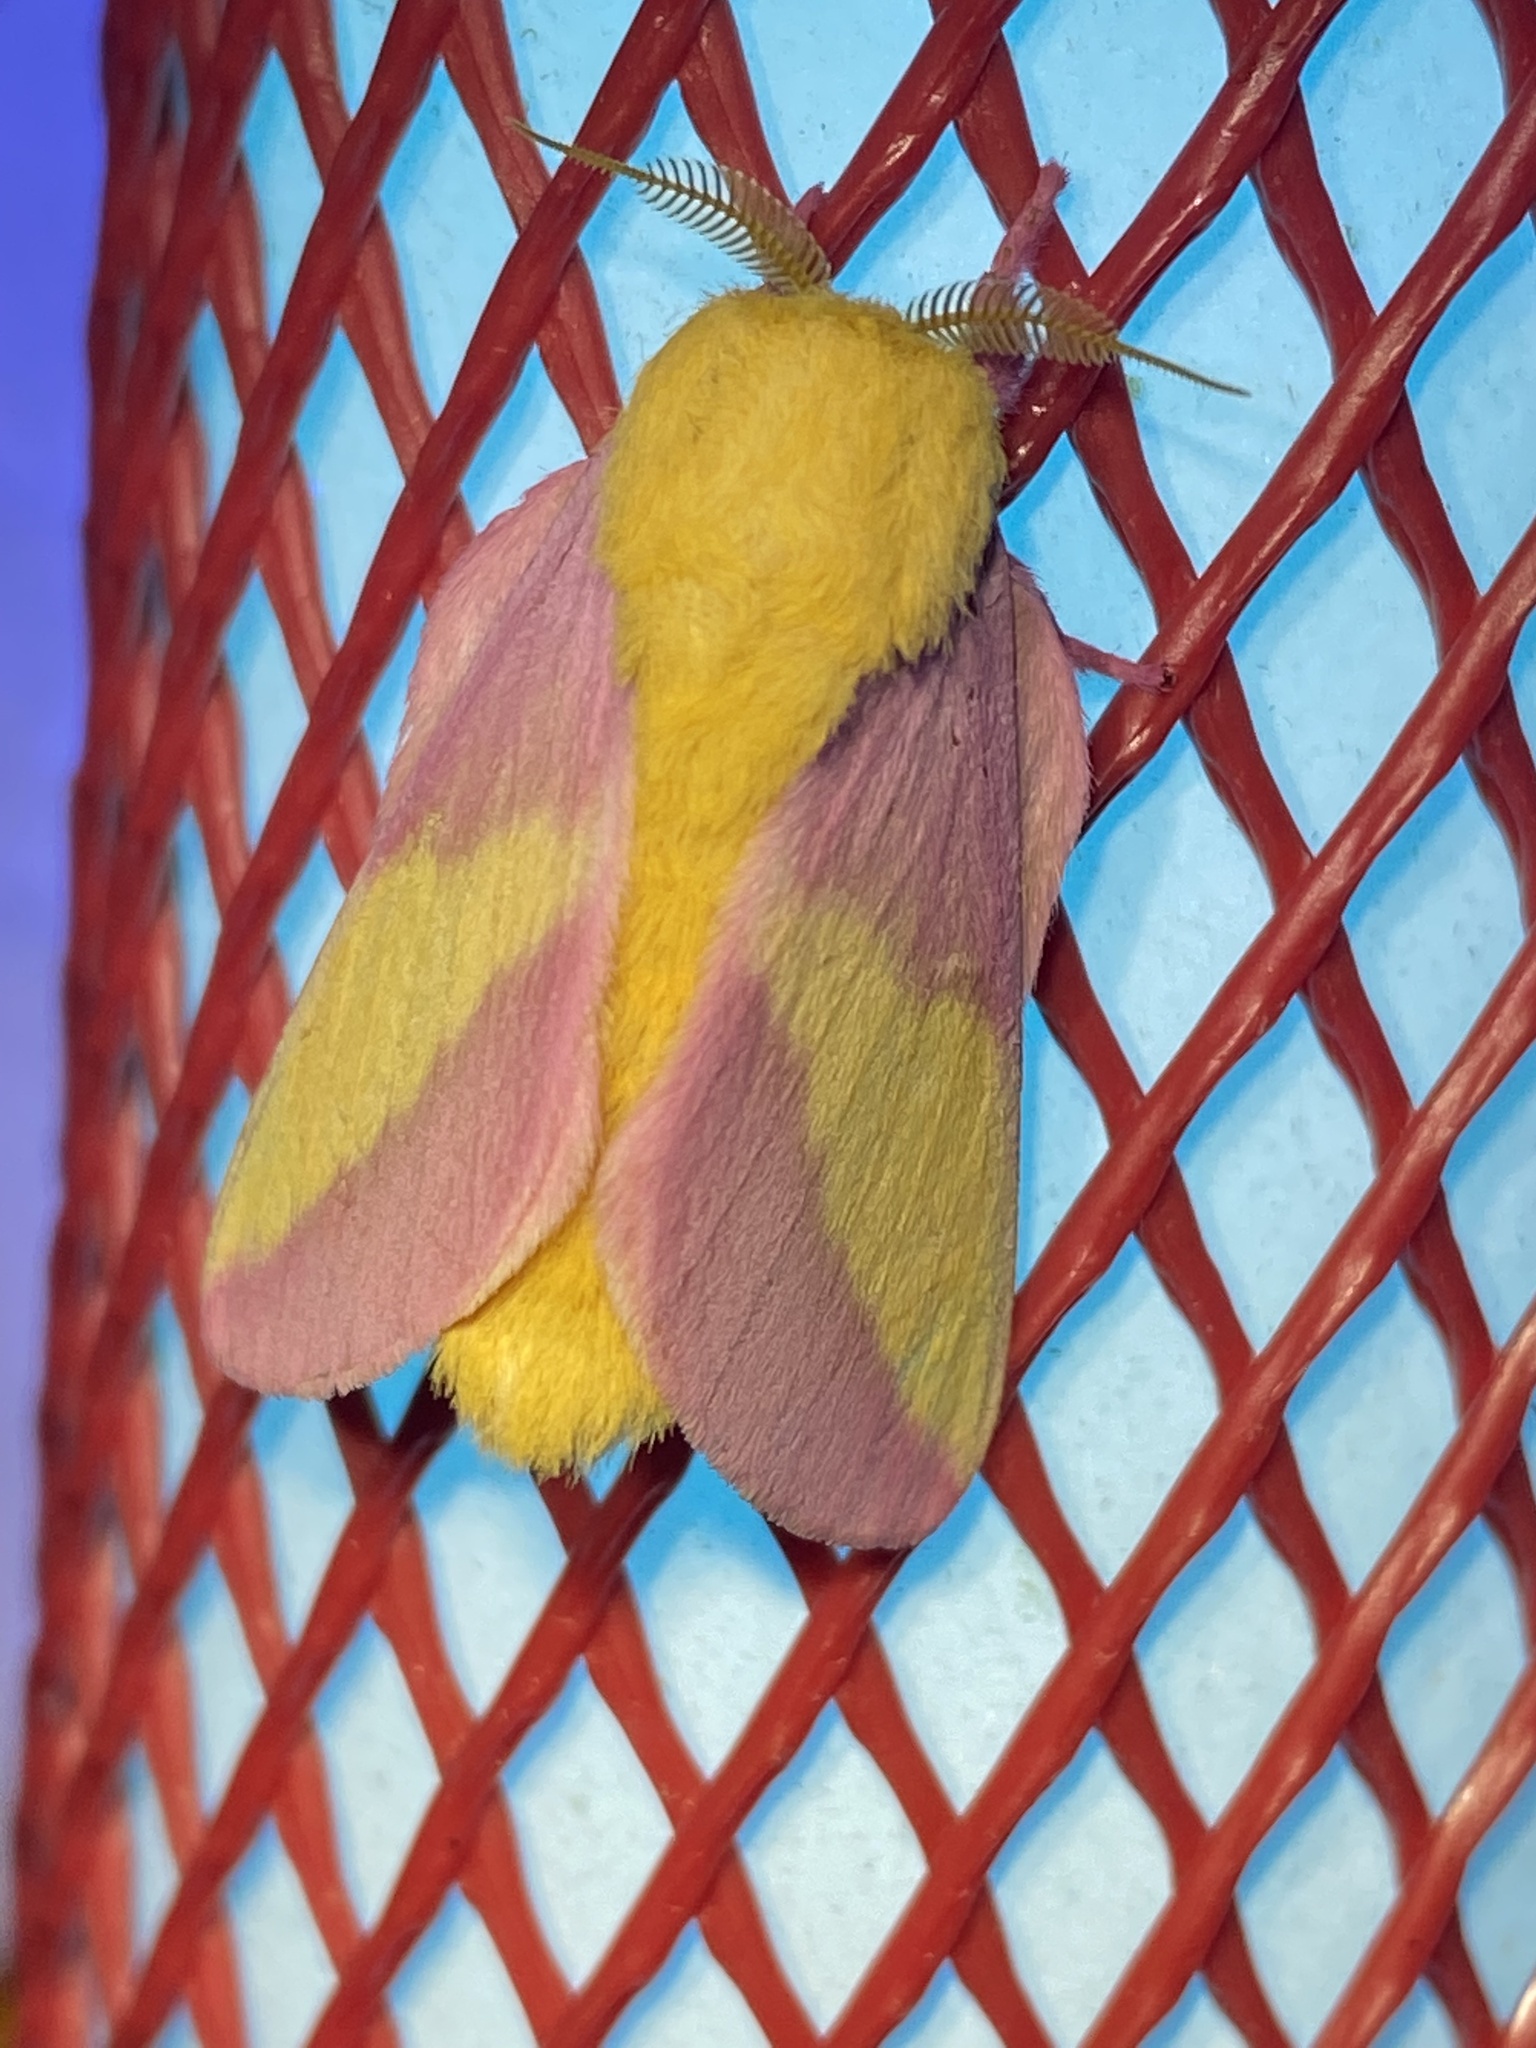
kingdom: Animalia
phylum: Arthropoda
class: Insecta
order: Lepidoptera
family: Saturniidae
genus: Dryocampa
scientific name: Dryocampa rubicunda
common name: Rosy maple moth
